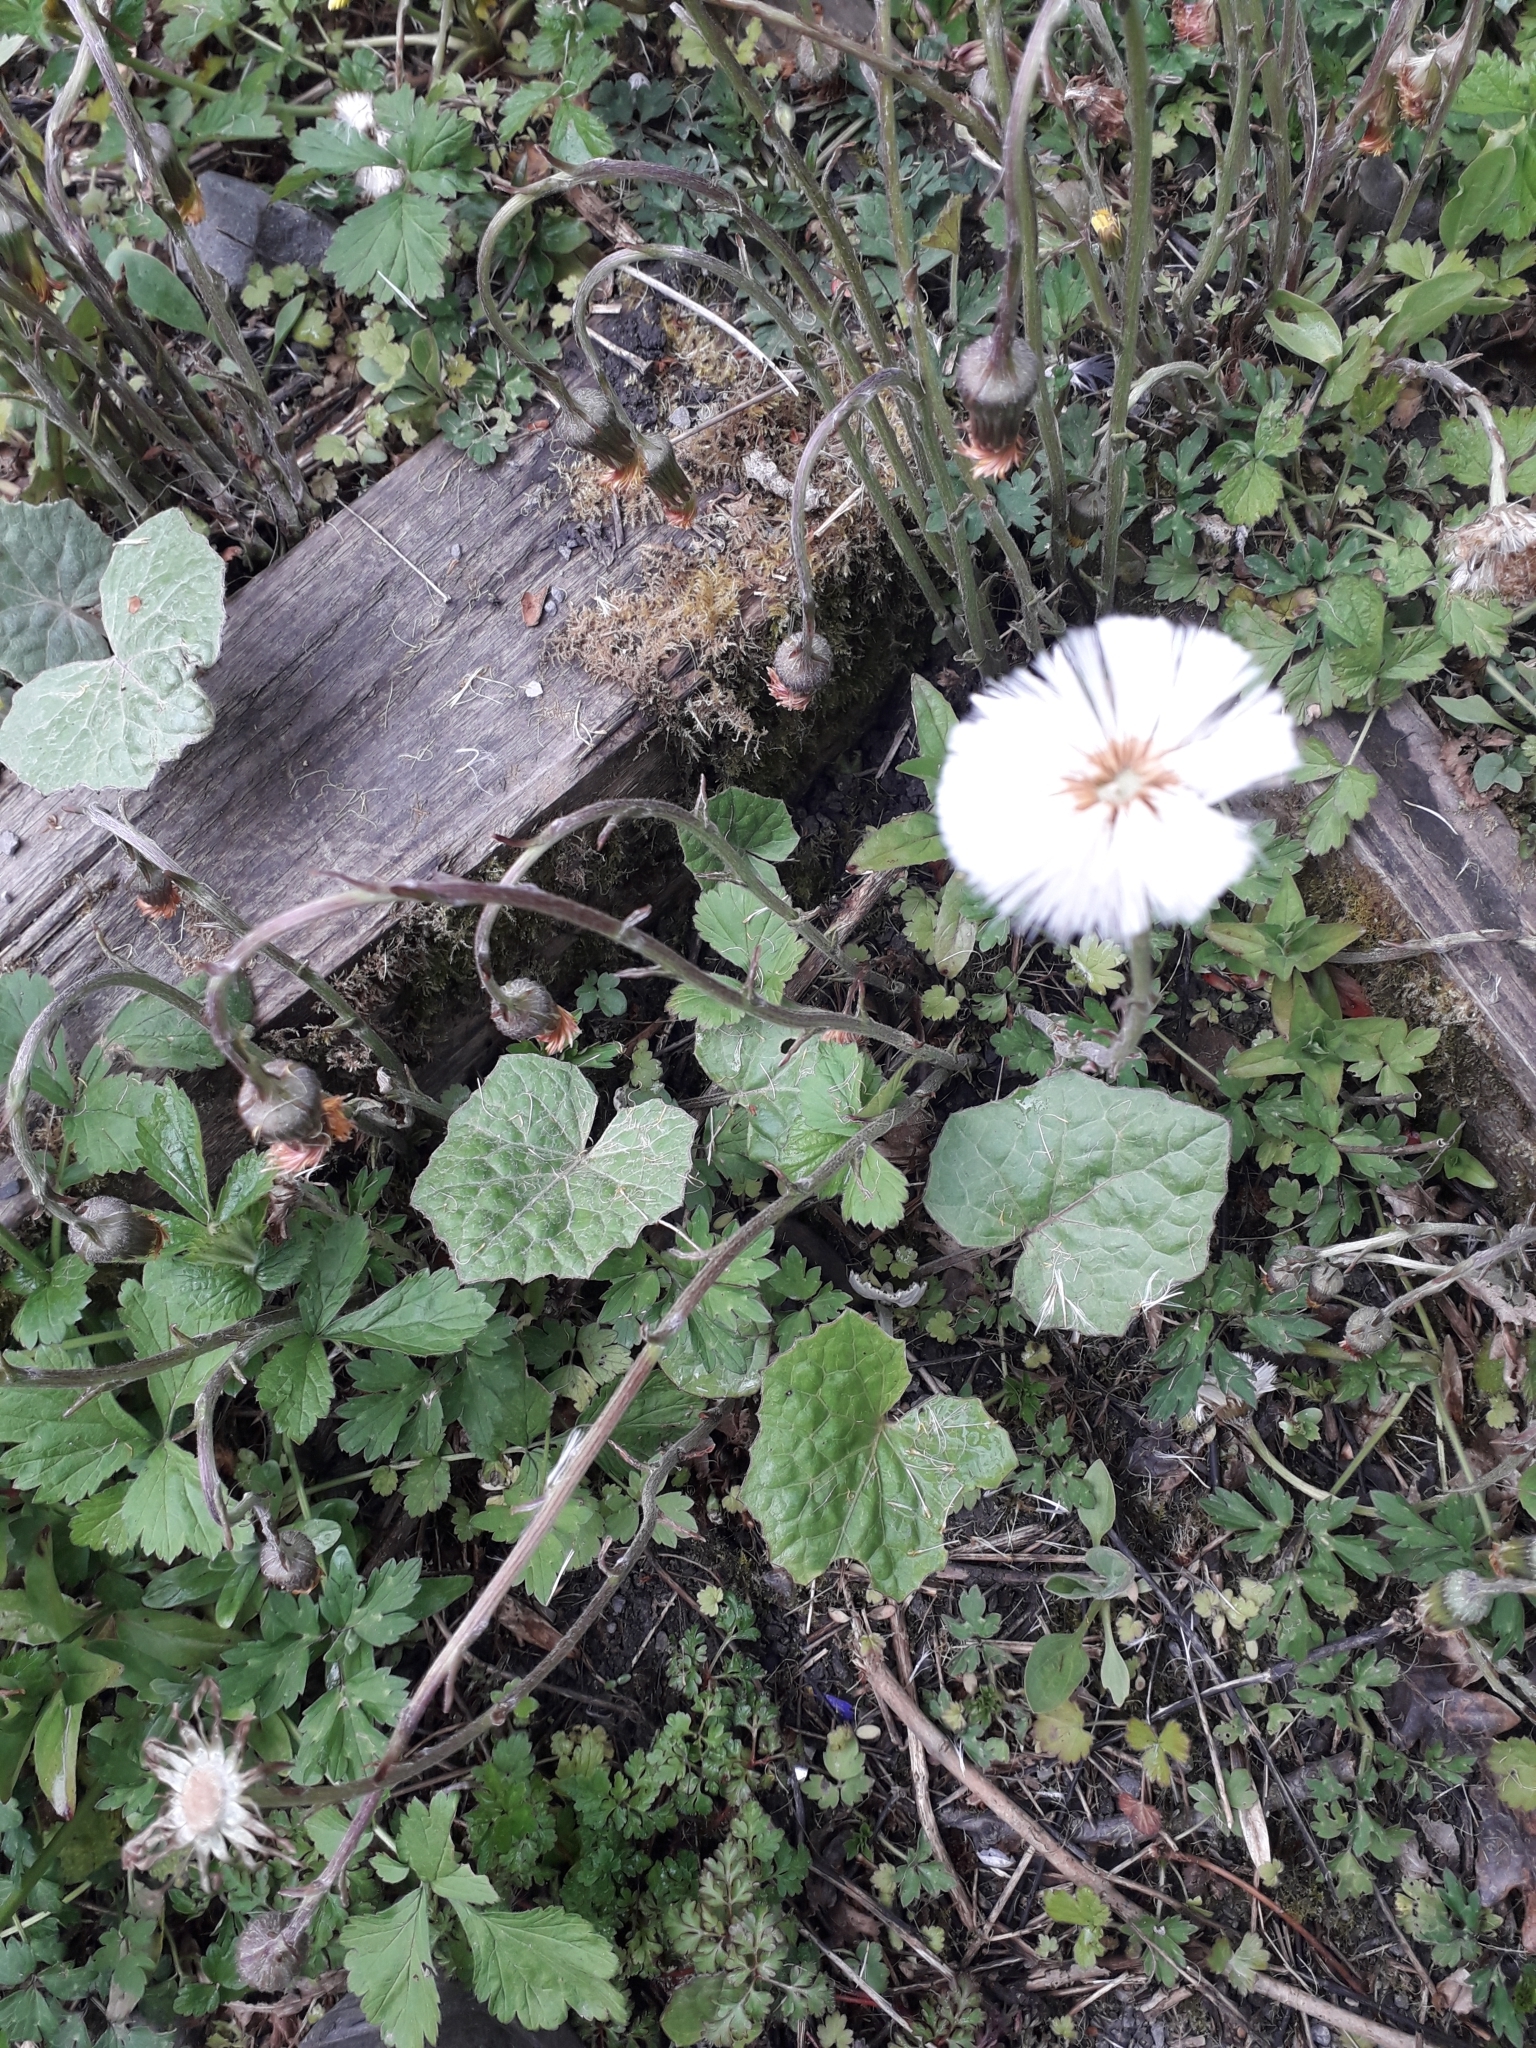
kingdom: Plantae
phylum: Tracheophyta
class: Magnoliopsida
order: Asterales
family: Asteraceae
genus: Tussilago
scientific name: Tussilago farfara
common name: Coltsfoot
